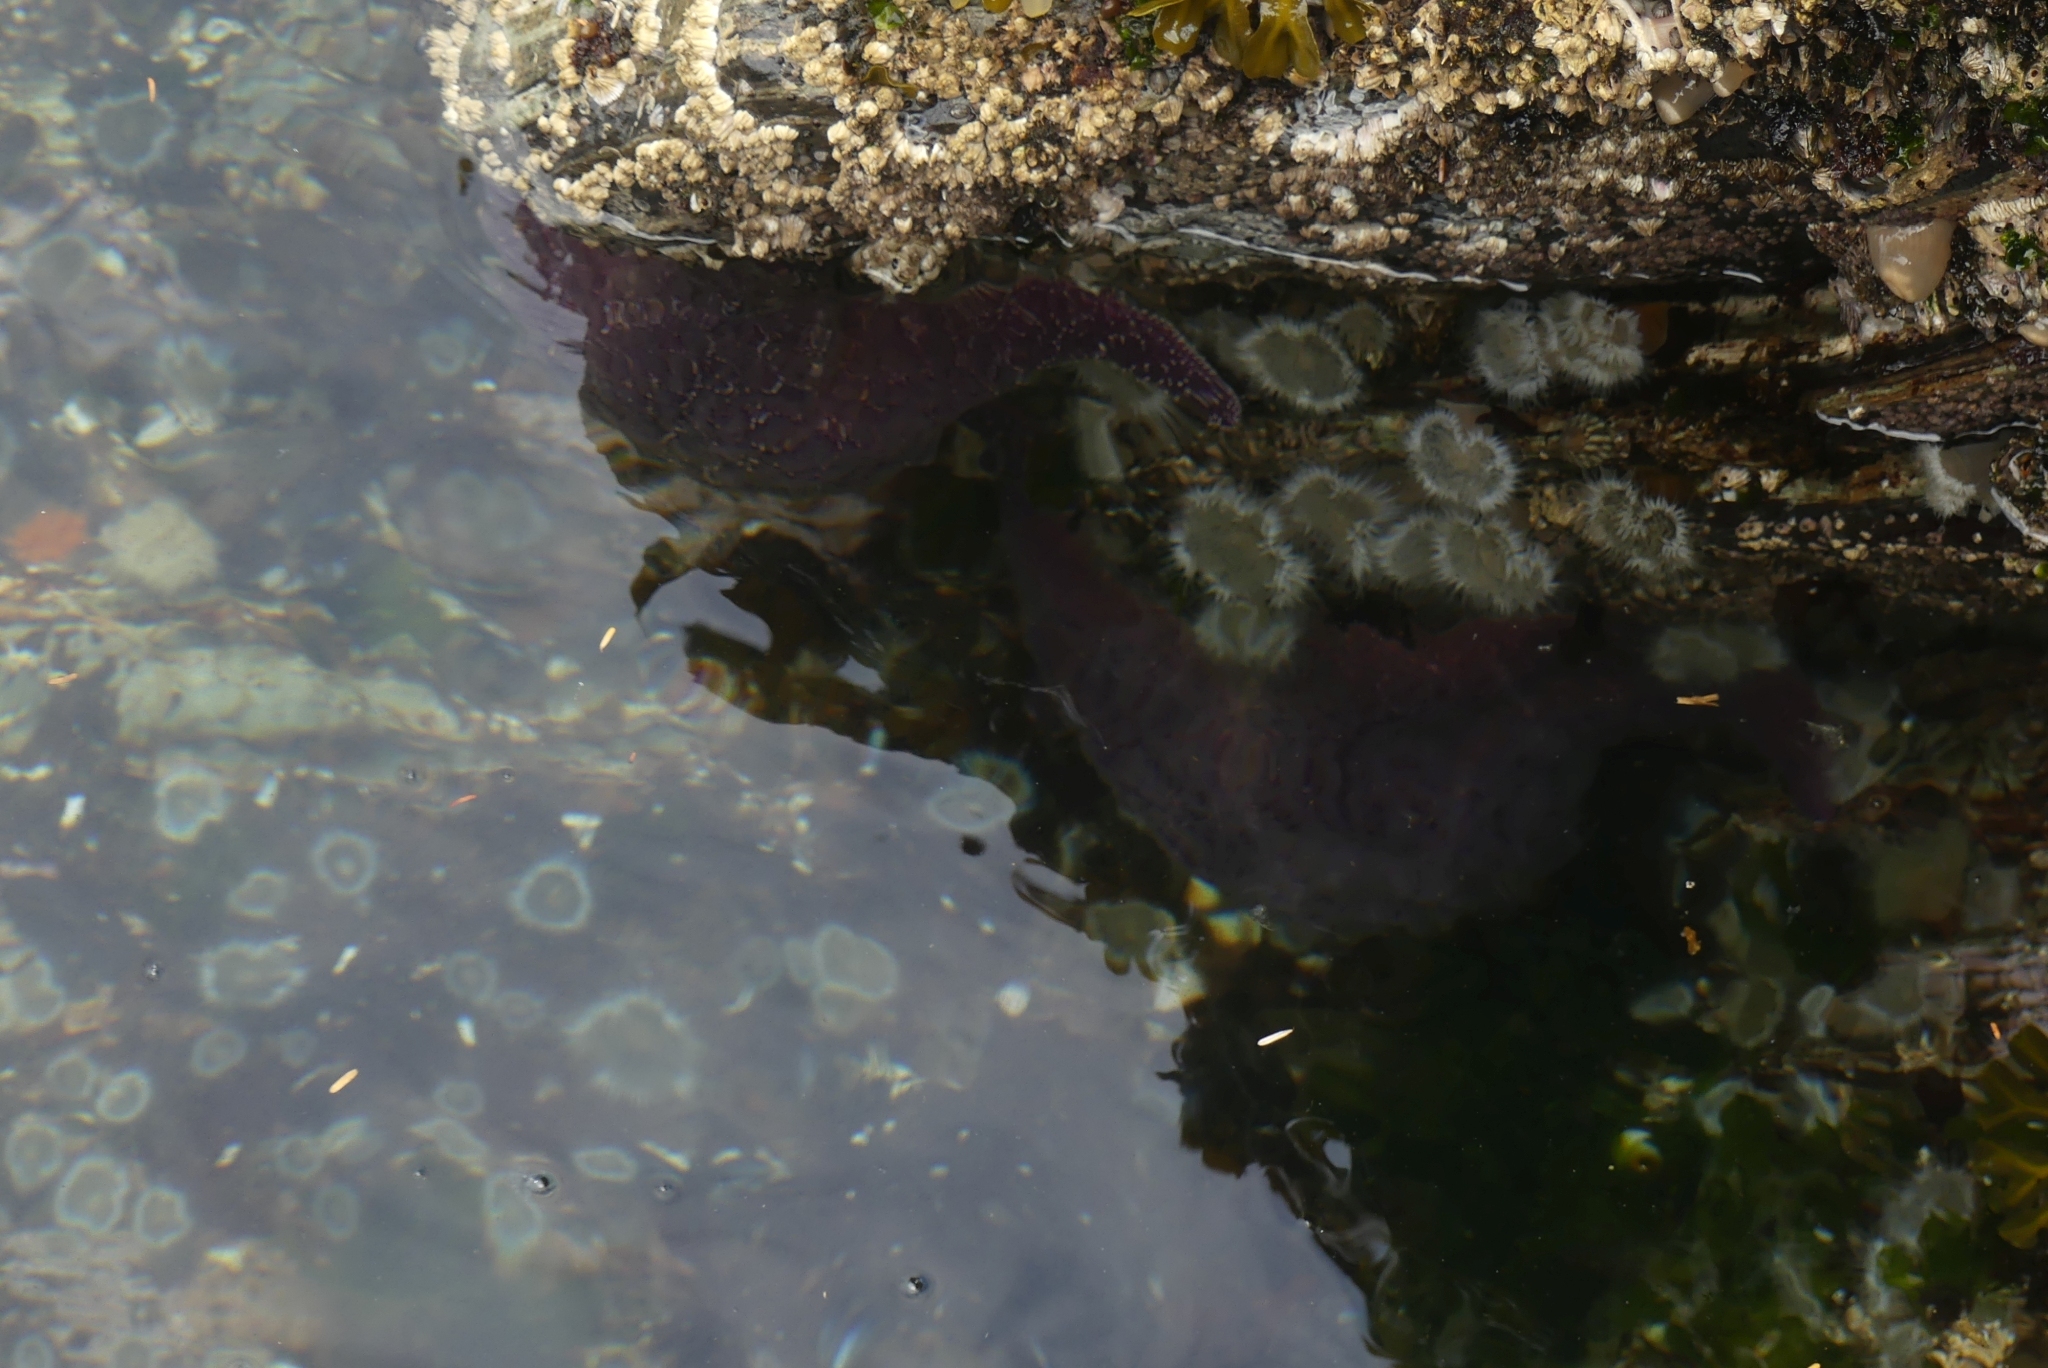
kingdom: Animalia
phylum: Echinodermata
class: Asteroidea
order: Forcipulatida
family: Asteriidae
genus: Pisaster
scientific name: Pisaster ochraceus
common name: Ochre stars
